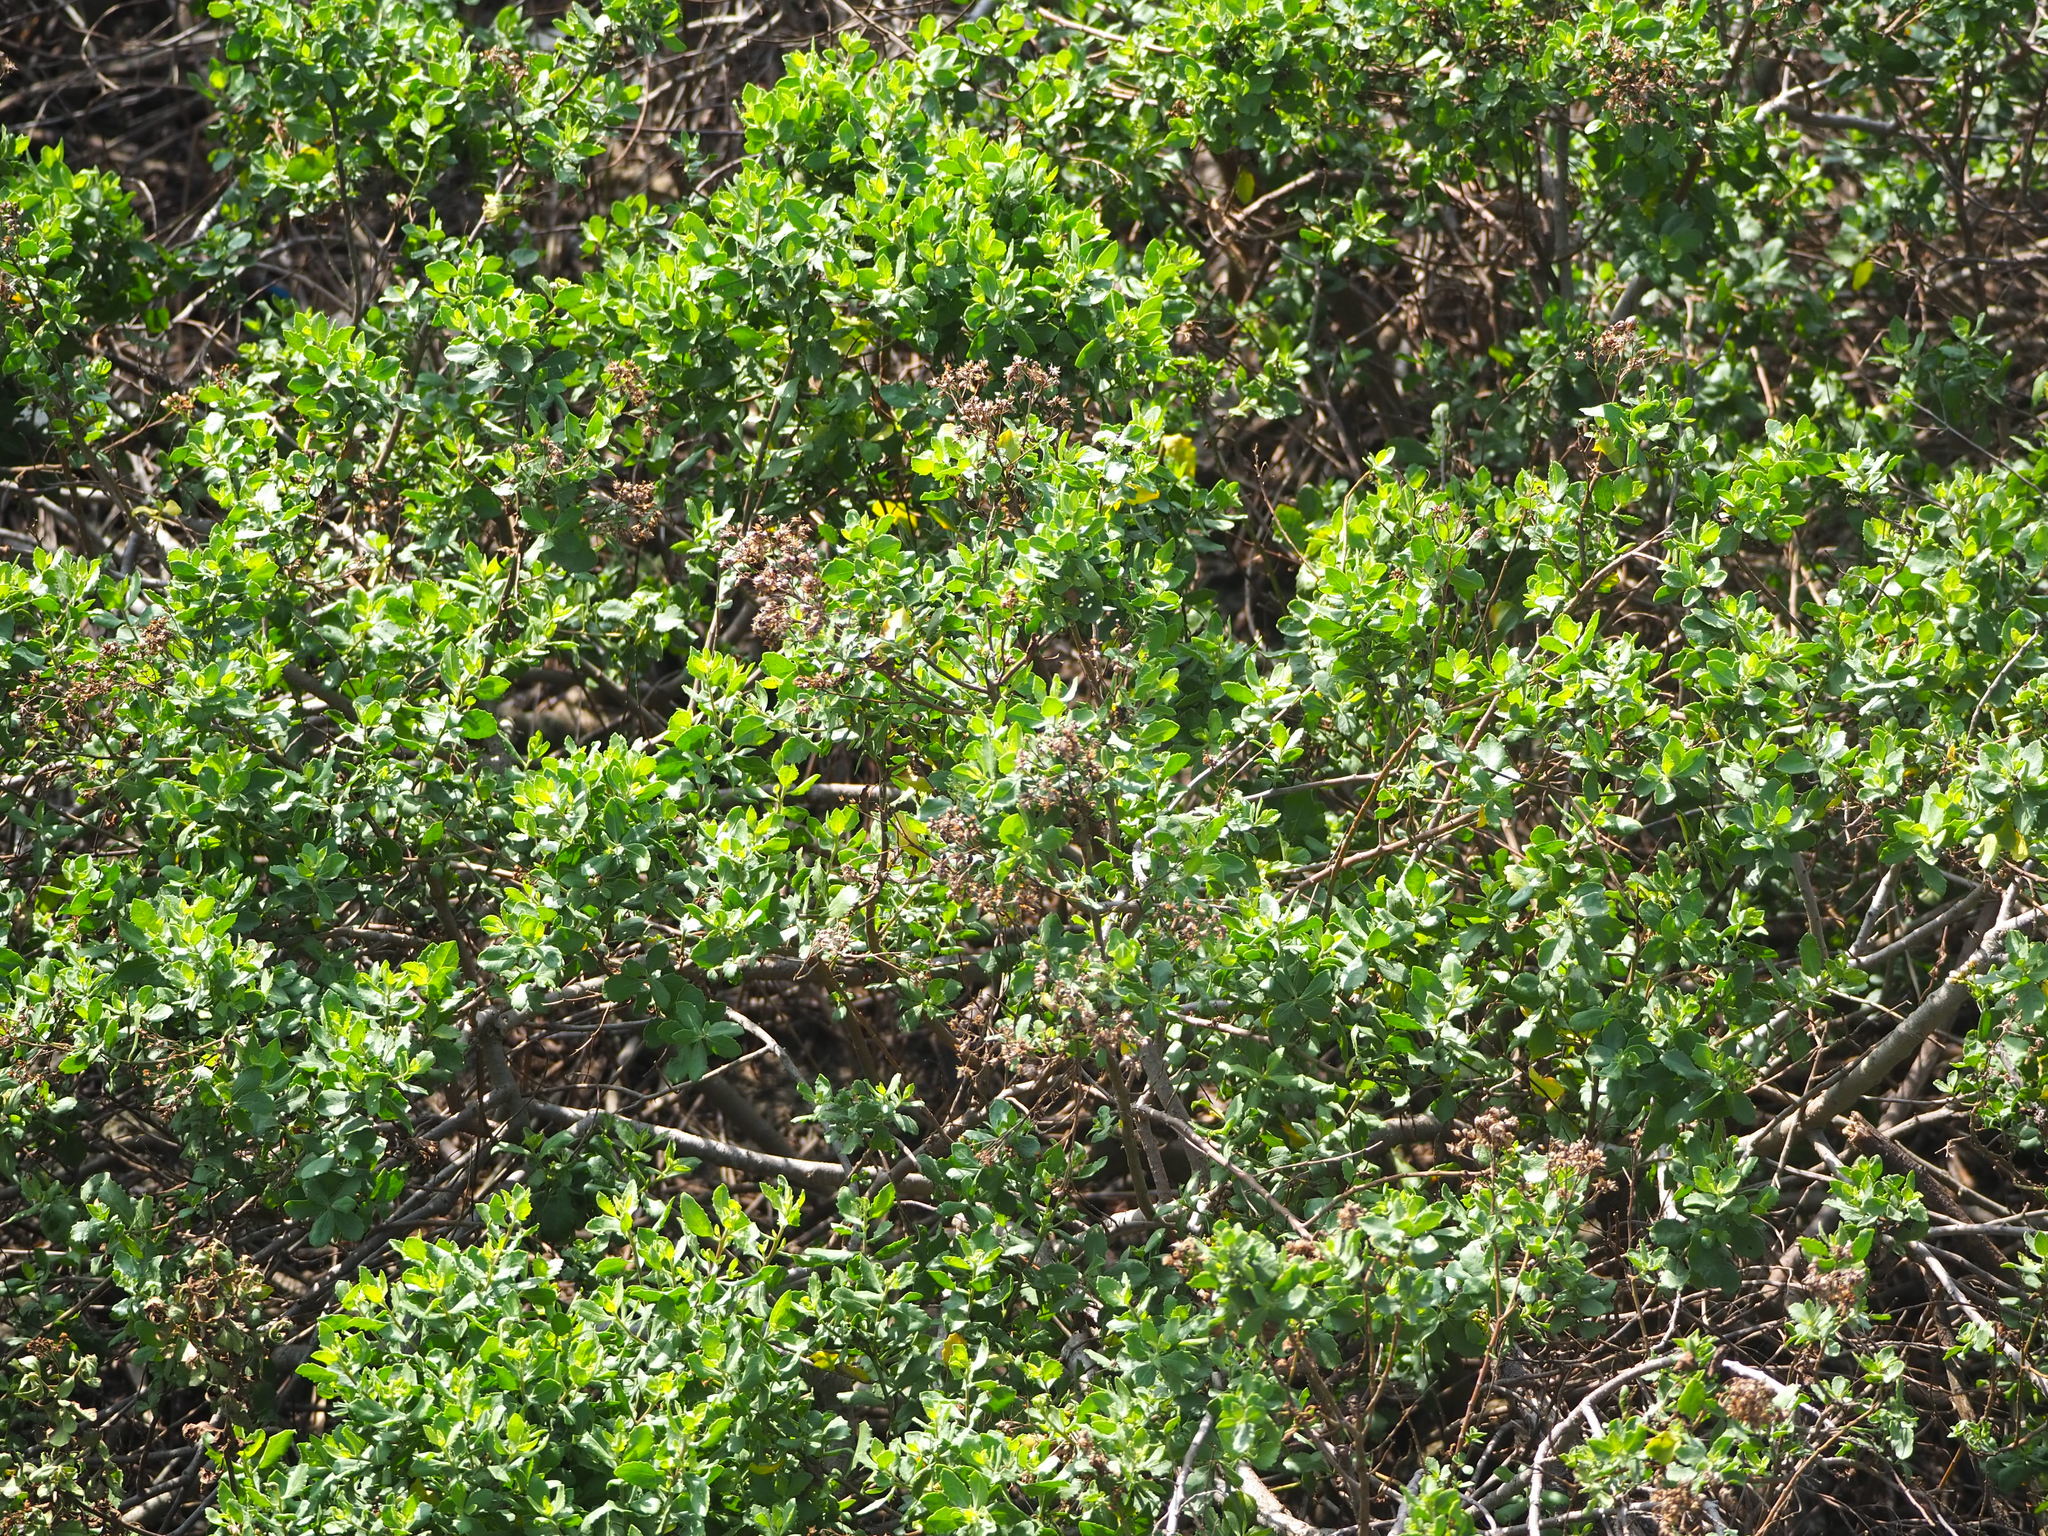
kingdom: Plantae
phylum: Tracheophyta
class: Magnoliopsida
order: Asterales
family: Asteraceae
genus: Pluchea
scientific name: Pluchea indica
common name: Indian fleabane
